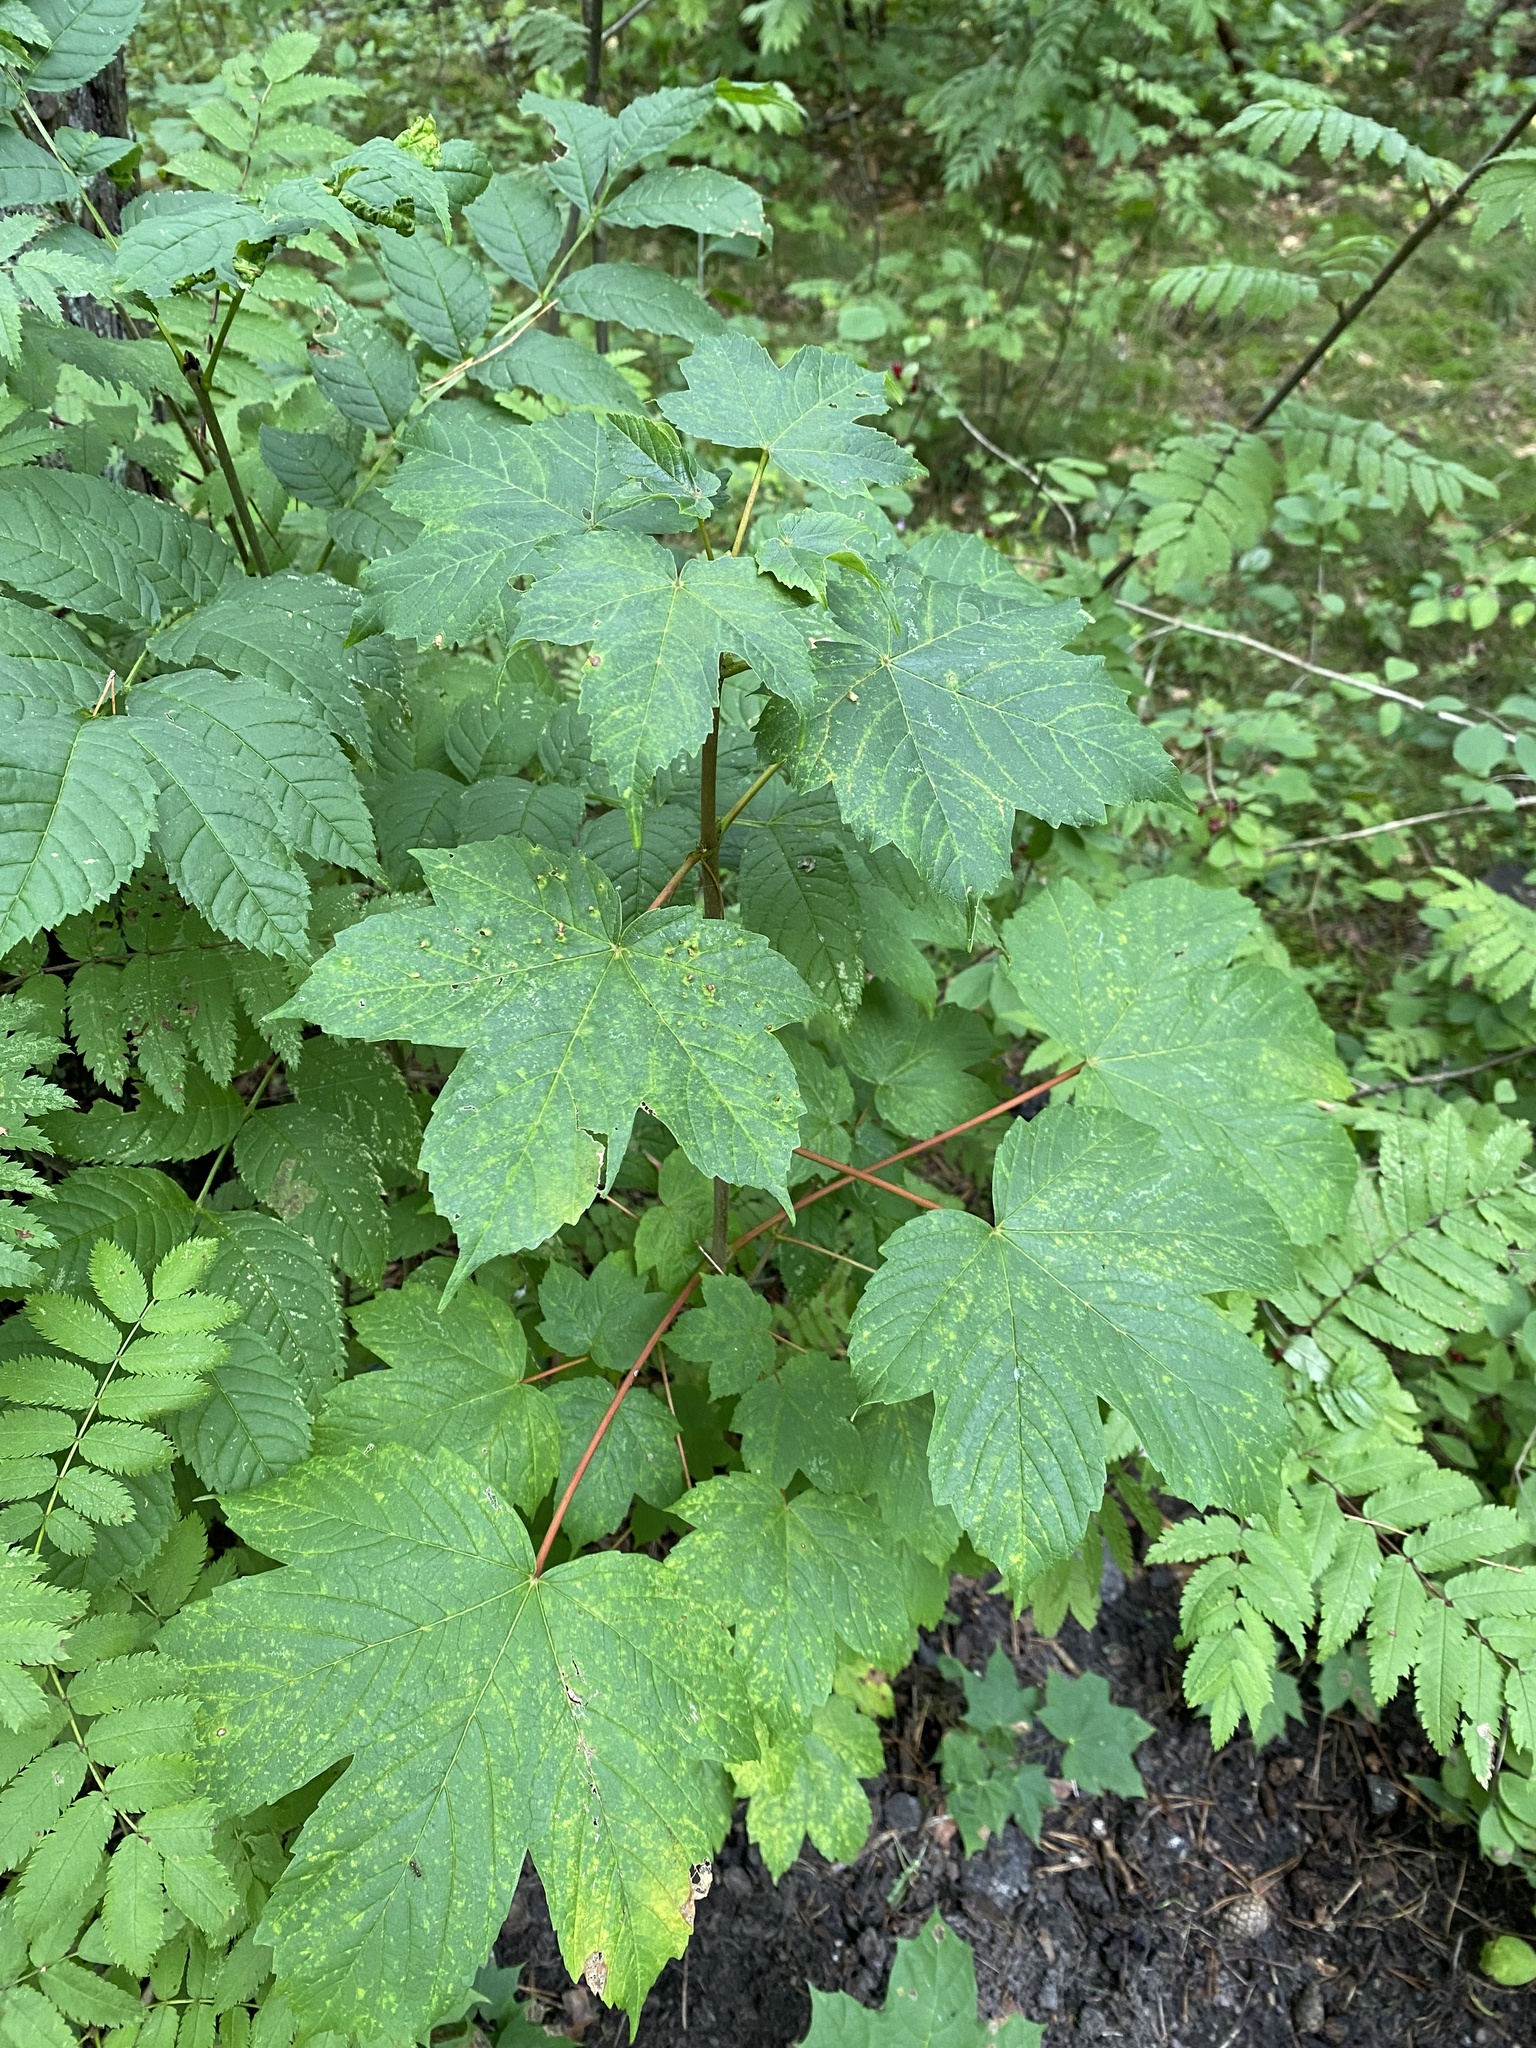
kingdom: Plantae
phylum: Tracheophyta
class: Magnoliopsida
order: Sapindales
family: Sapindaceae
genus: Acer
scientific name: Acer pseudoplatanus
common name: Sycamore
